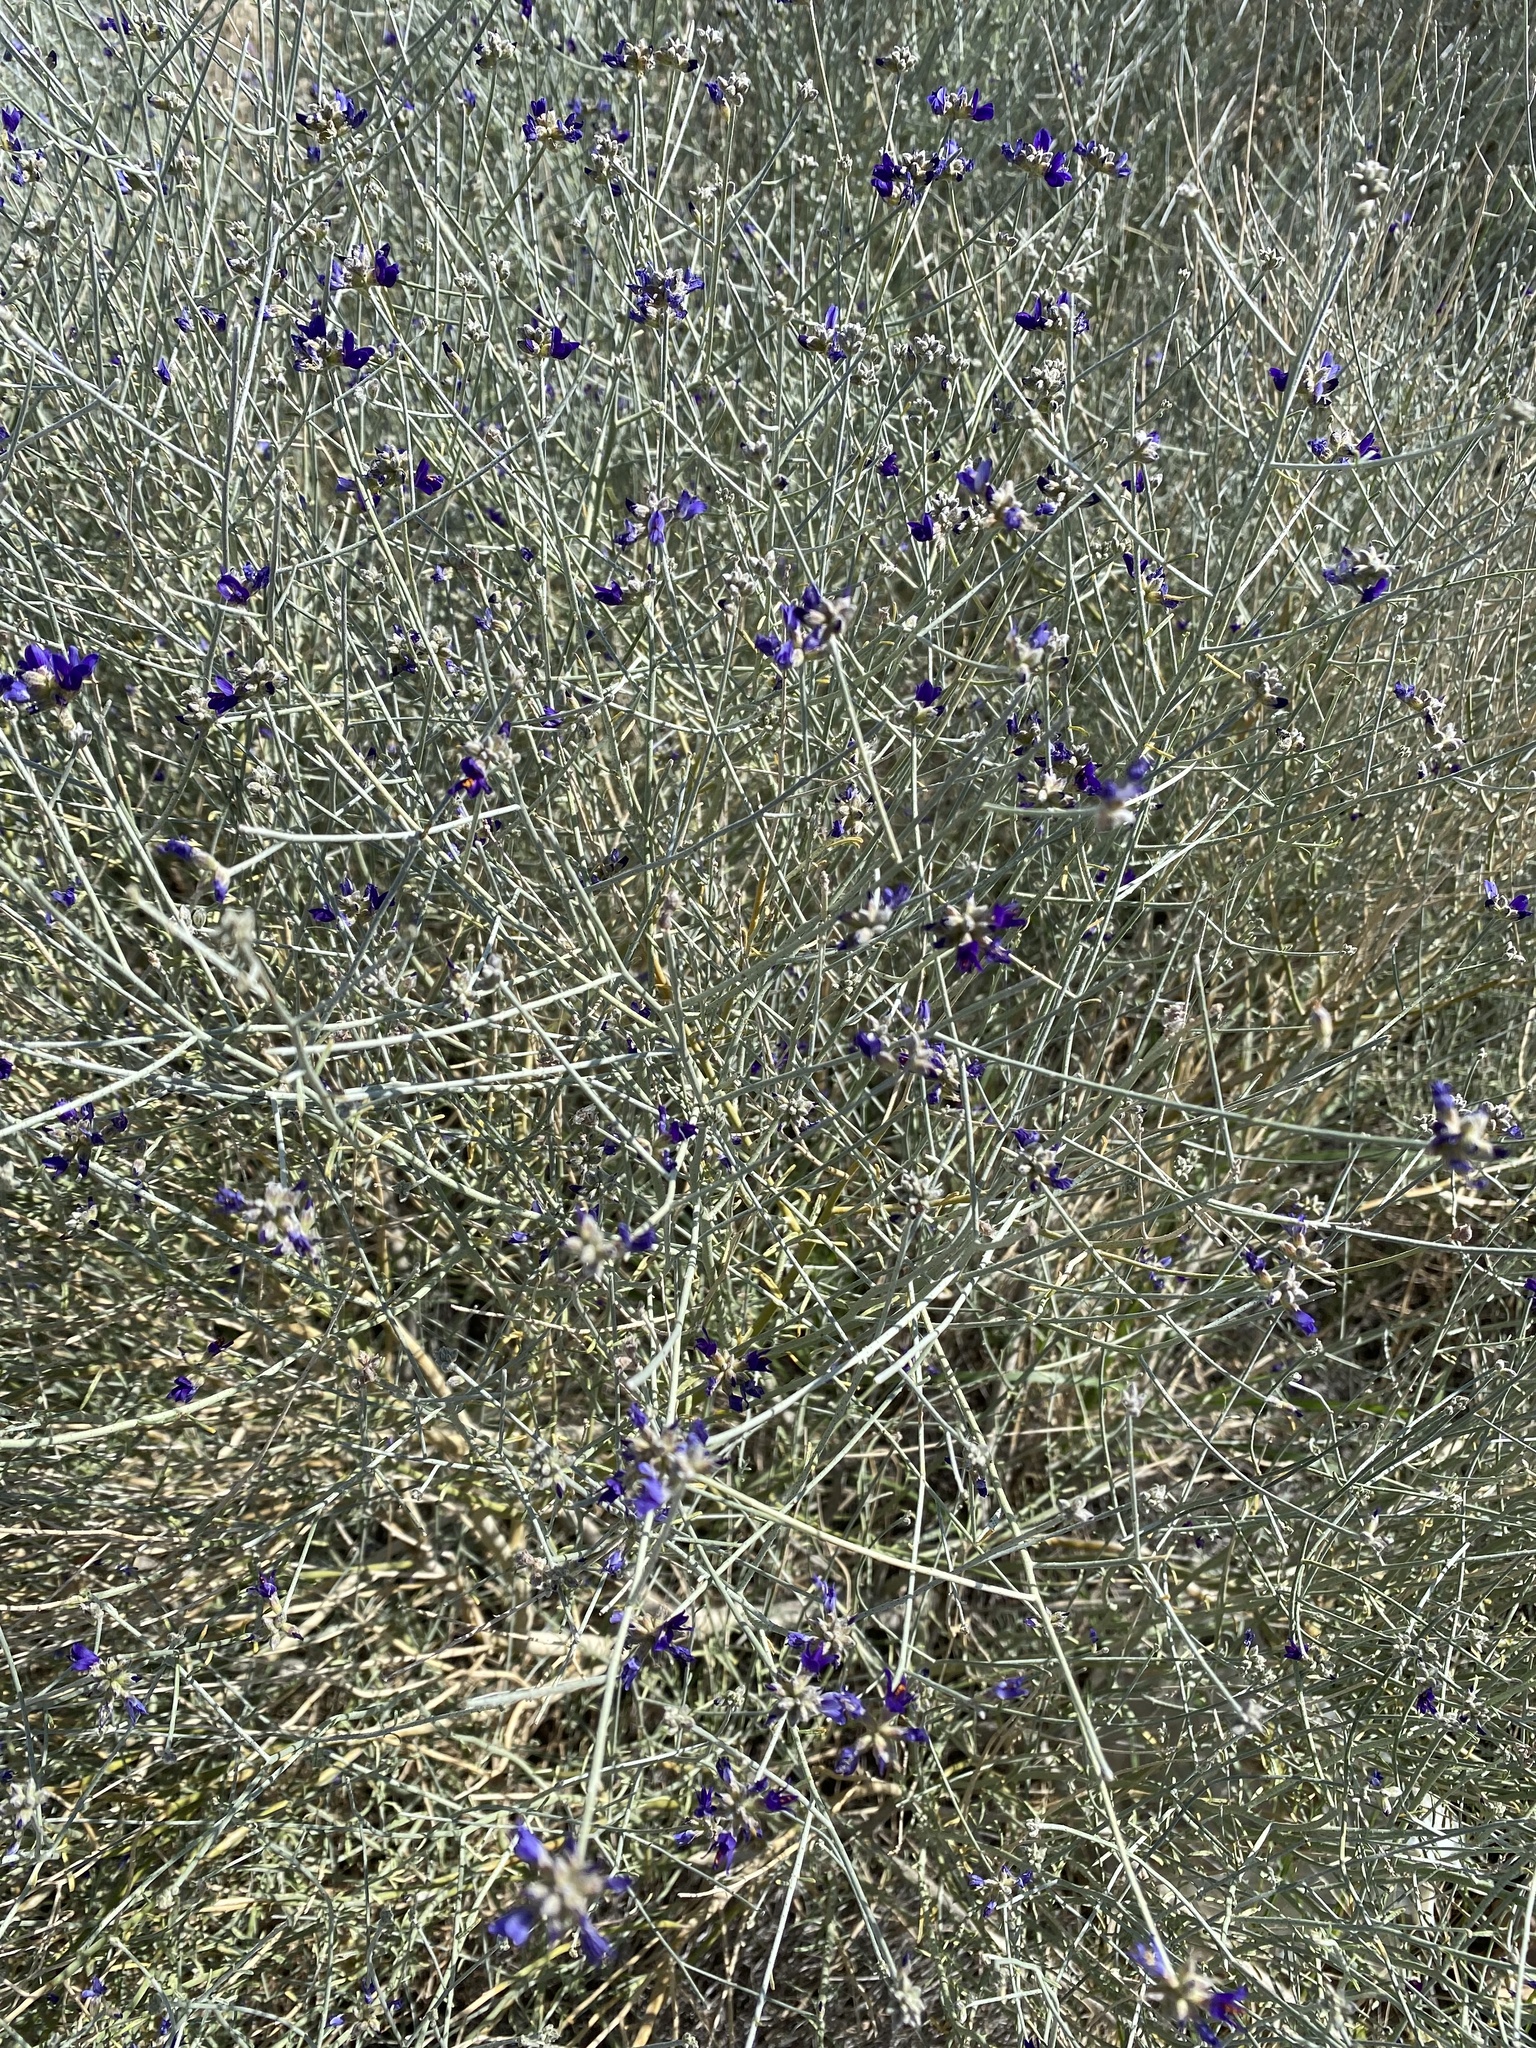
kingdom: Plantae
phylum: Tracheophyta
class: Magnoliopsida
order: Fabales
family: Fabaceae
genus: Psorothamnus
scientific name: Psorothamnus scoparius
